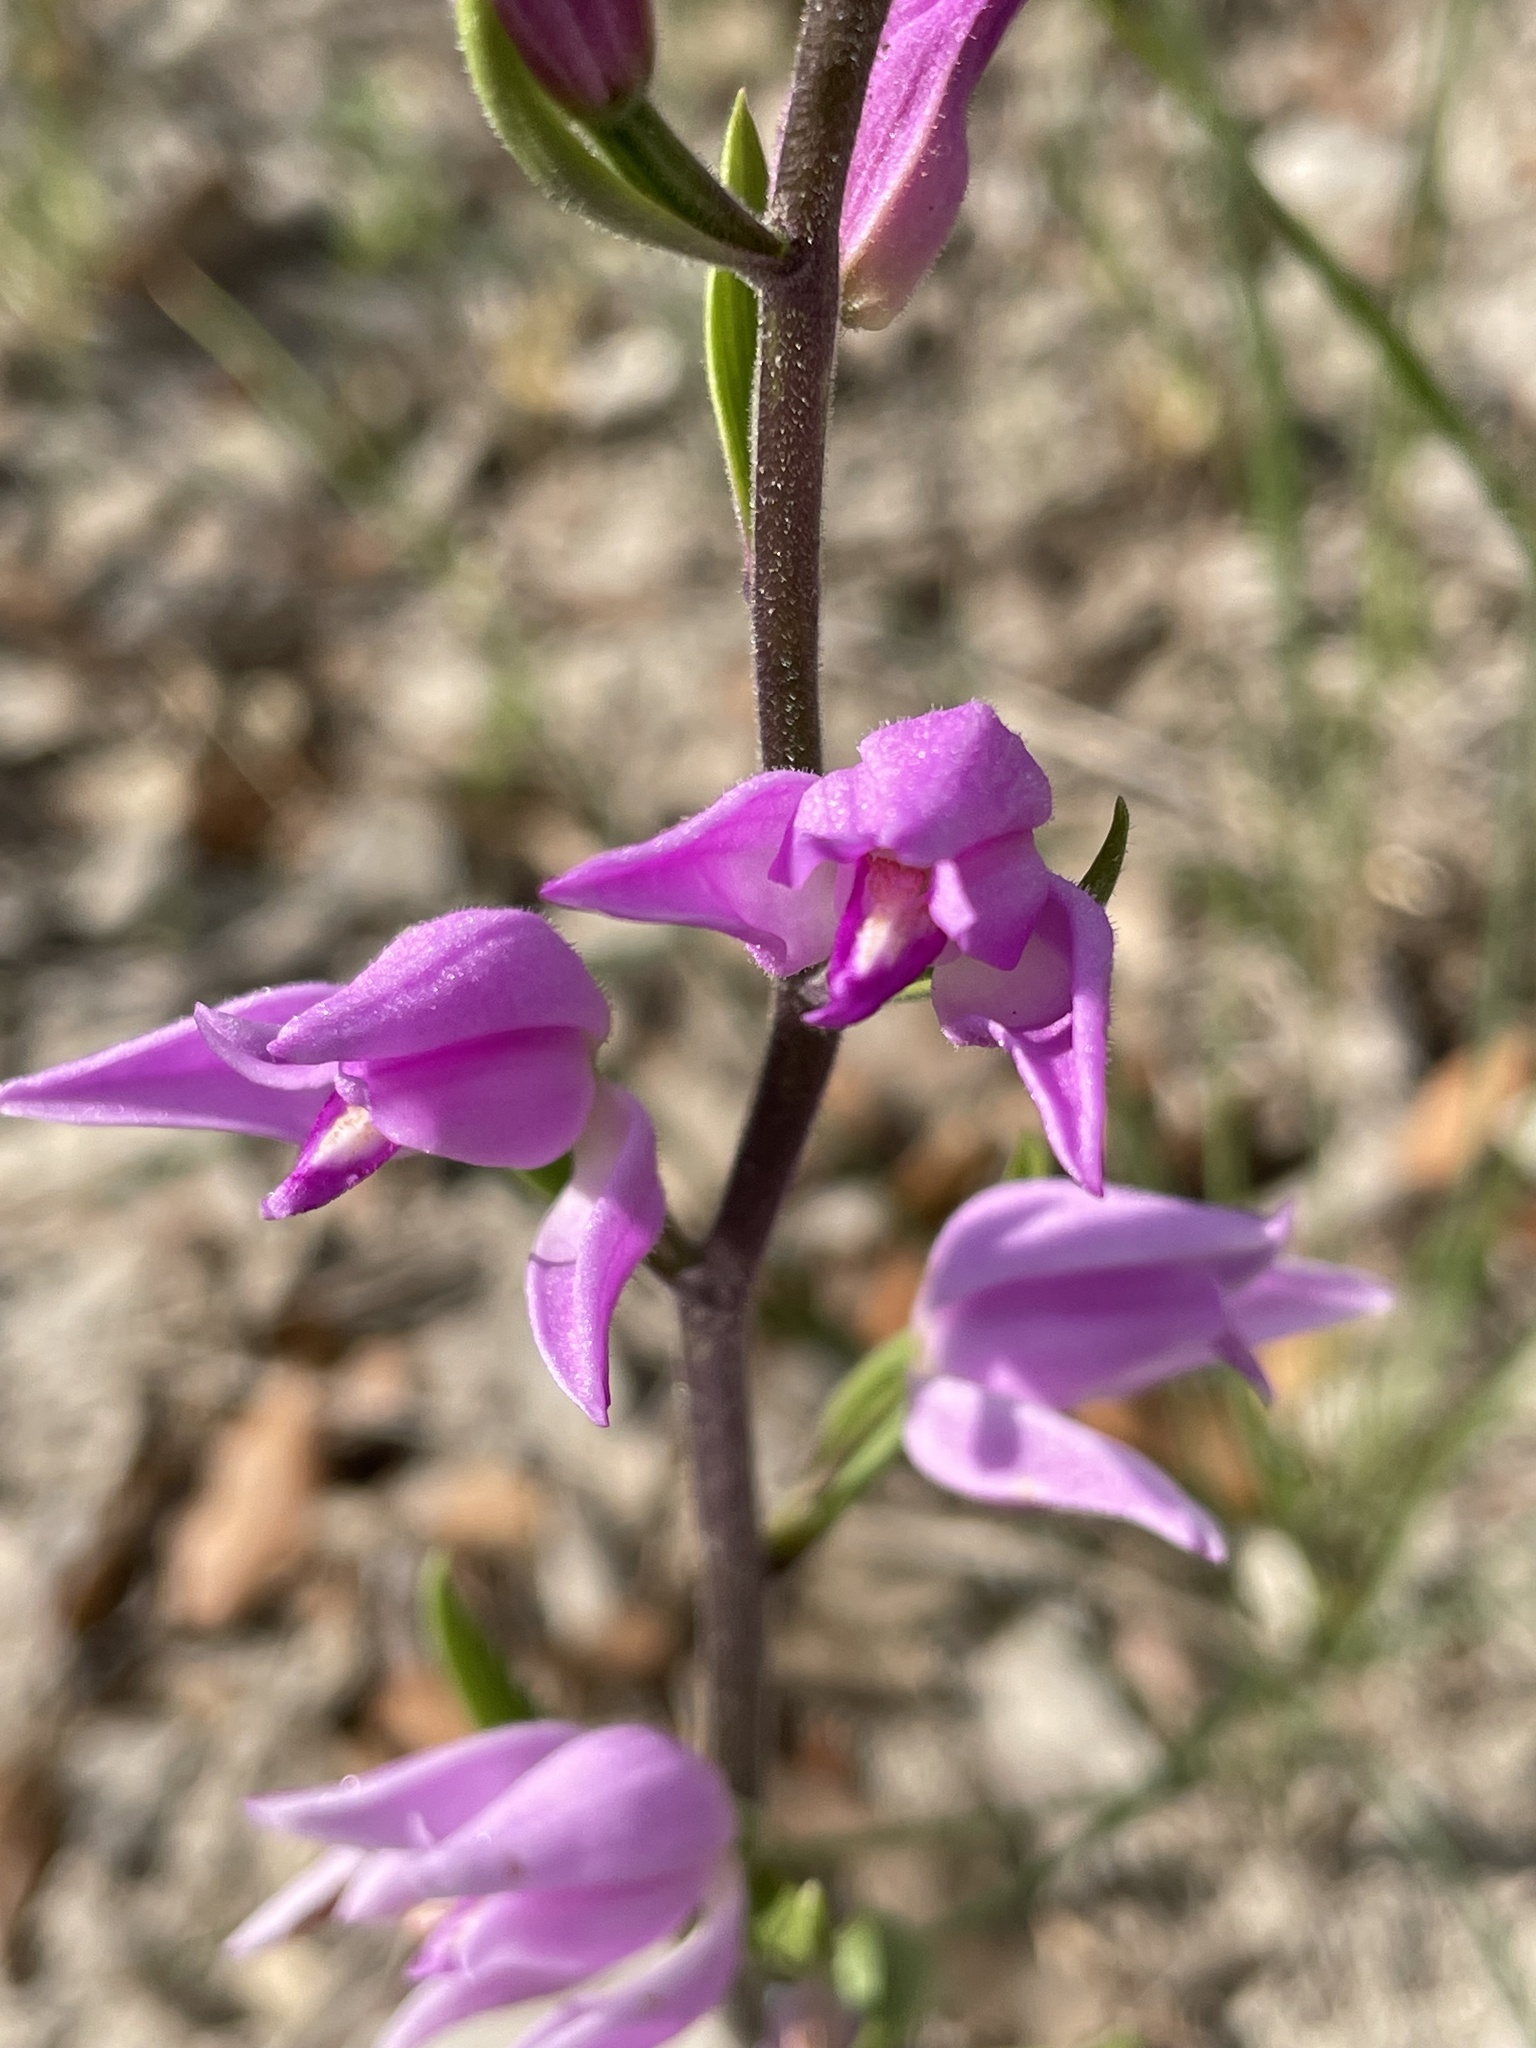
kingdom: Plantae
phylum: Tracheophyta
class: Liliopsida
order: Asparagales
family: Orchidaceae
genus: Cephalanthera
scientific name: Cephalanthera rubra
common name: Red helleborine
